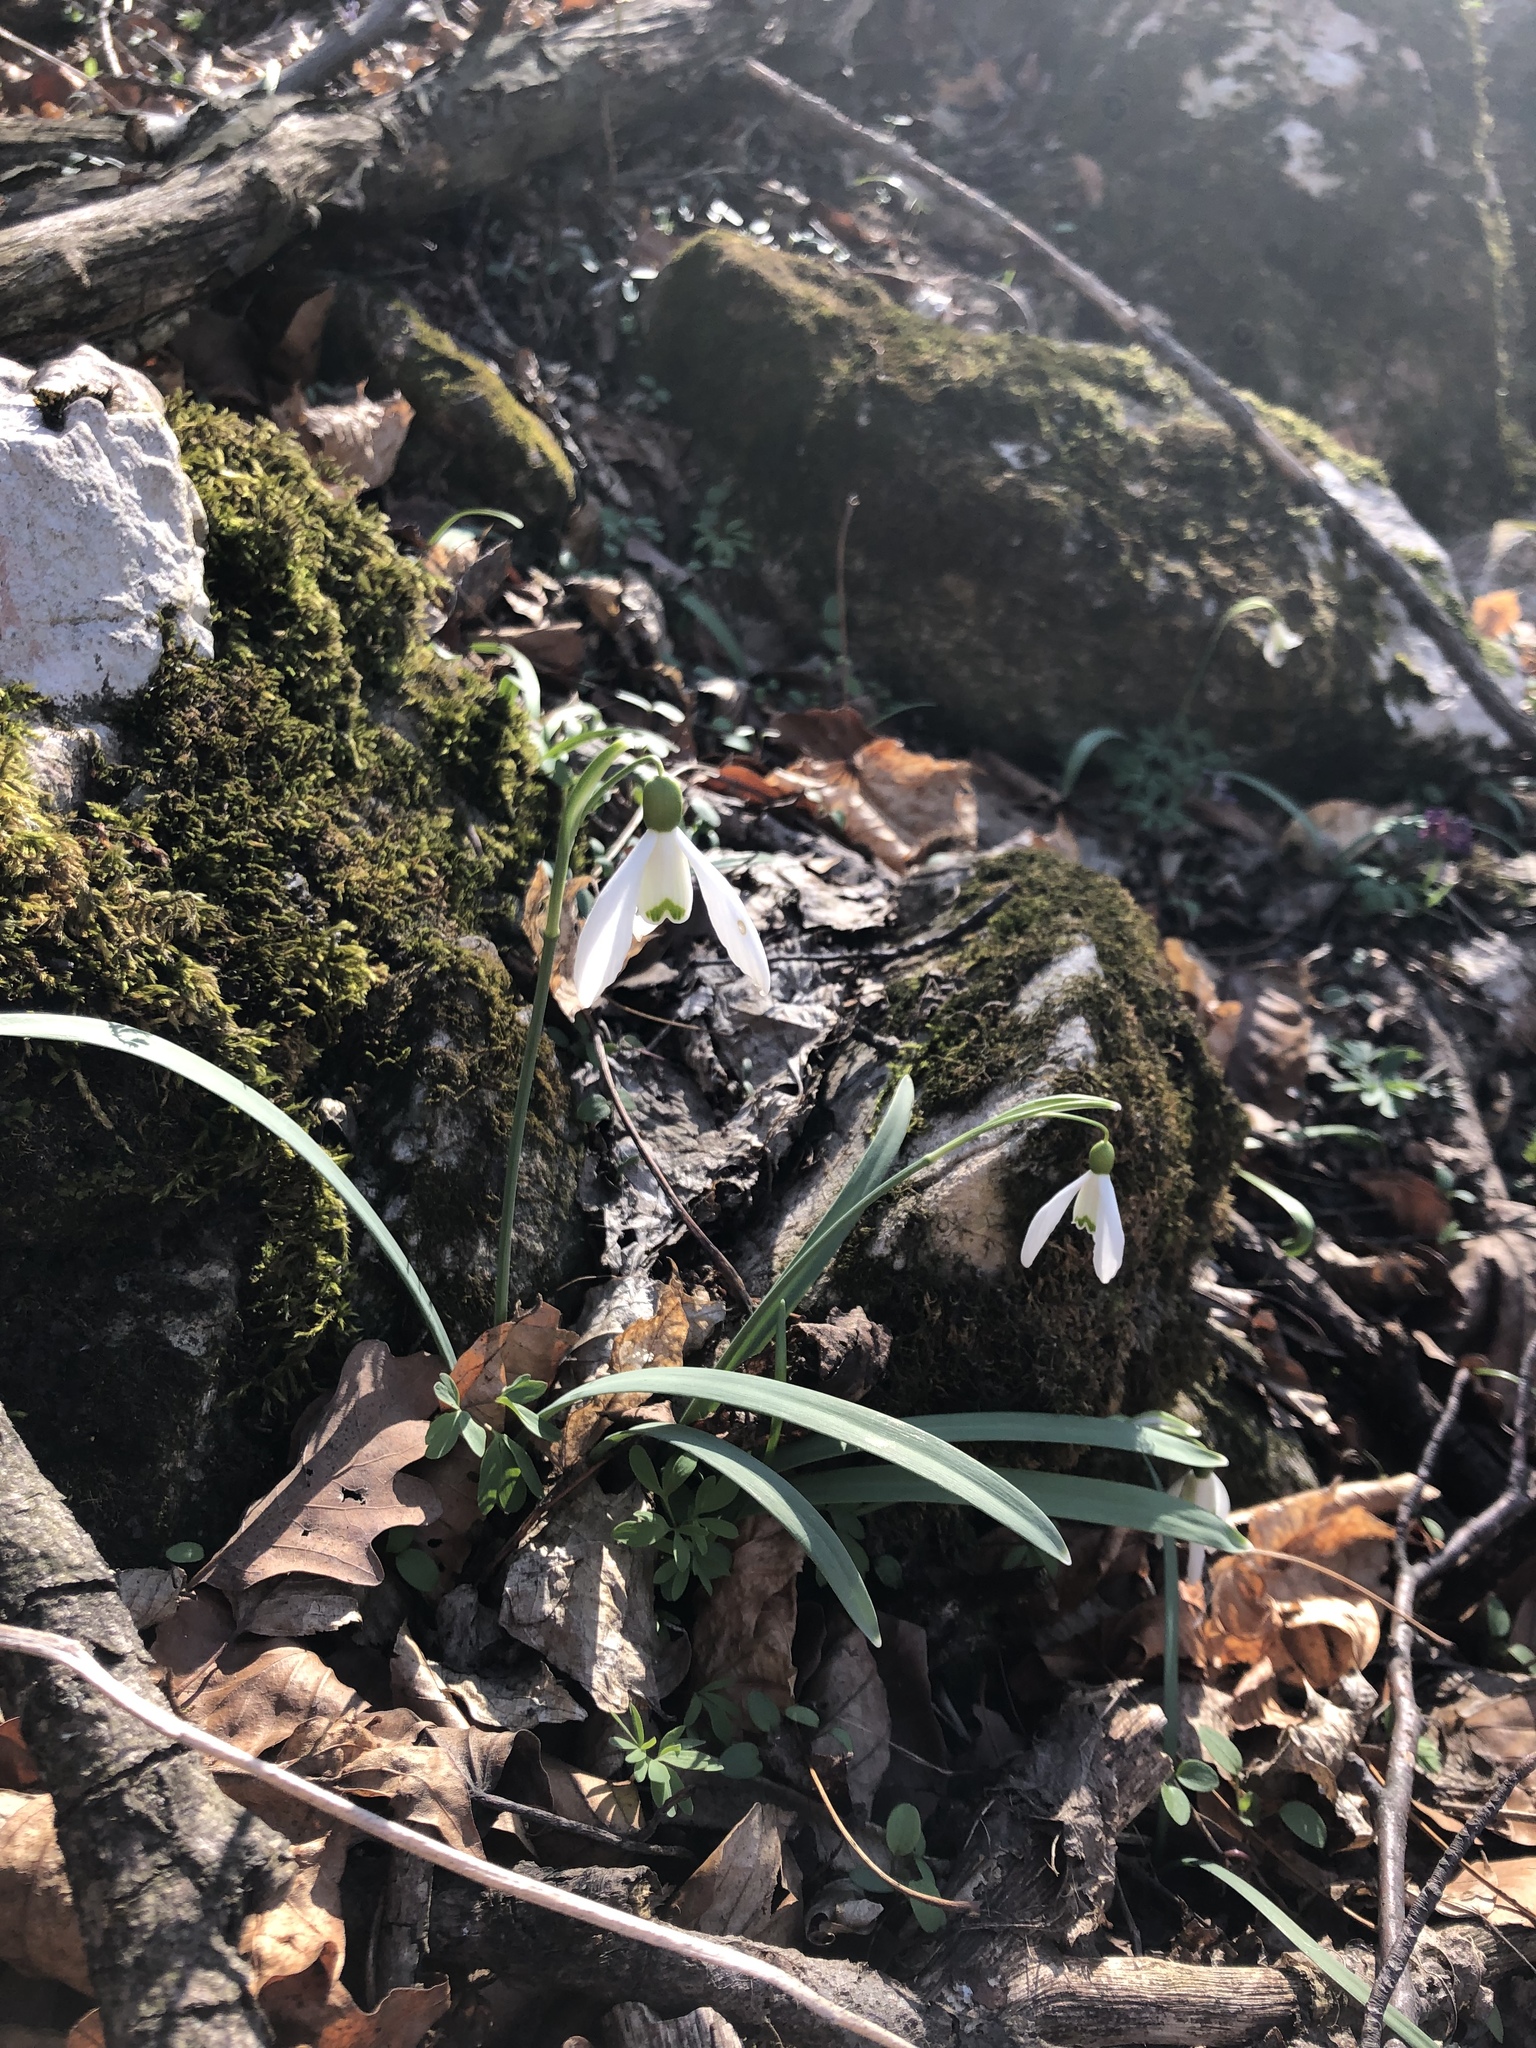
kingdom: Plantae
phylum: Tracheophyta
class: Liliopsida
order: Asparagales
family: Amaryllidaceae
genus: Galanthus
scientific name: Galanthus nivalis
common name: Snowdrop
